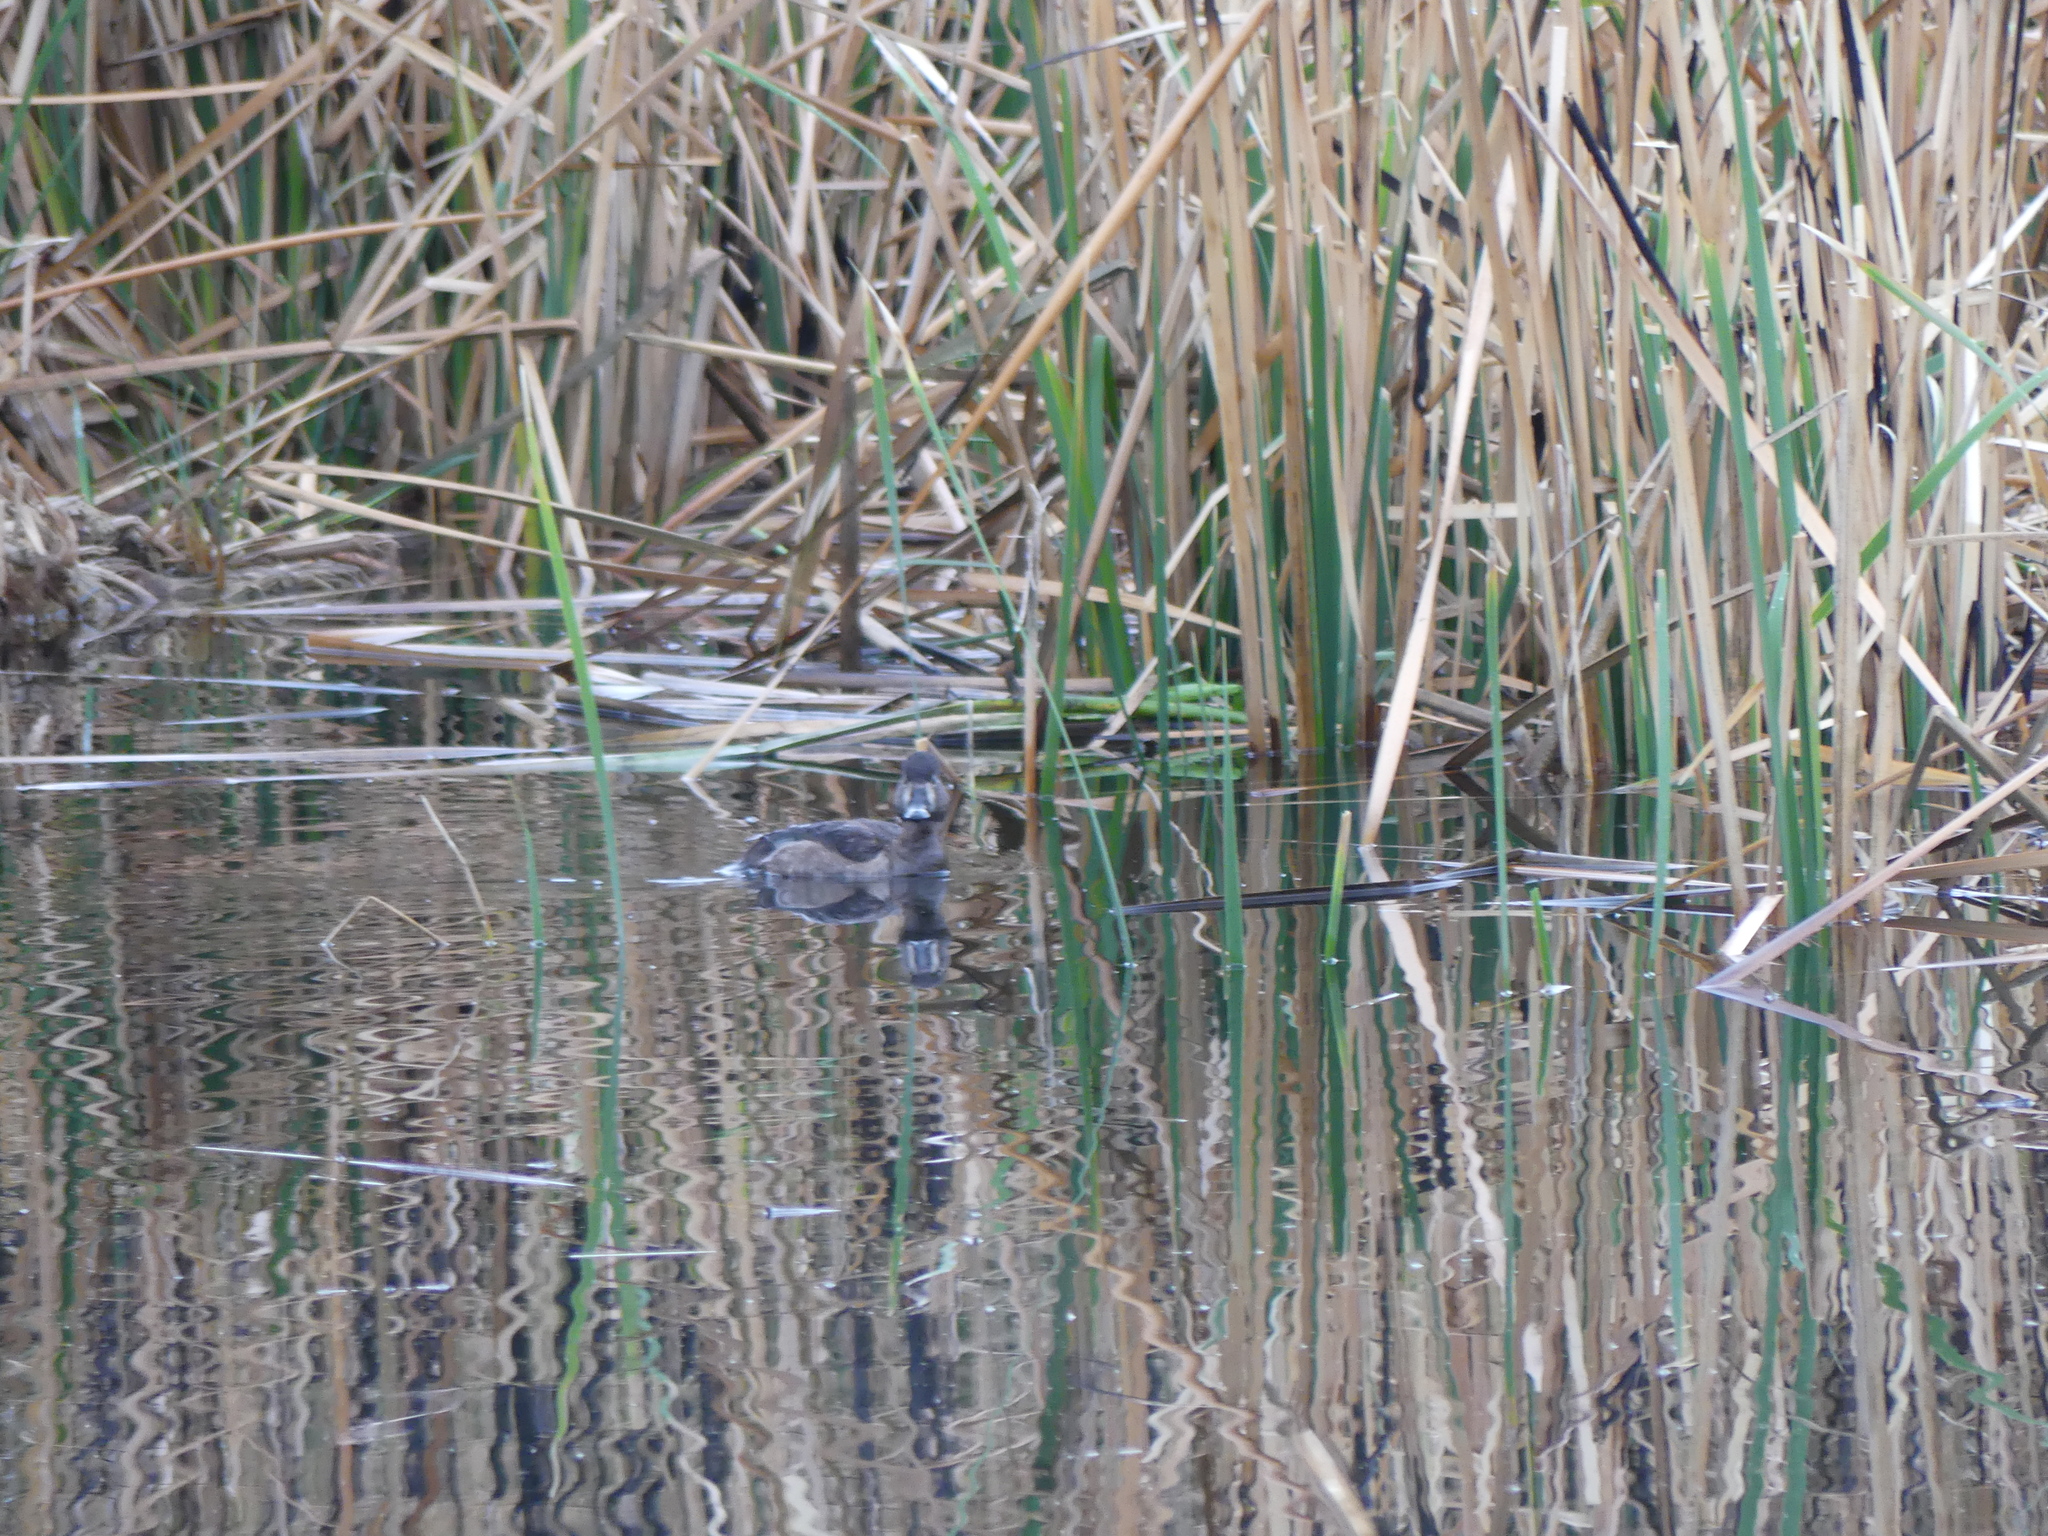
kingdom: Animalia
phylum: Chordata
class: Aves
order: Podicipediformes
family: Podicipedidae
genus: Podilymbus
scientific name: Podilymbus podiceps
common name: Pied-billed grebe
